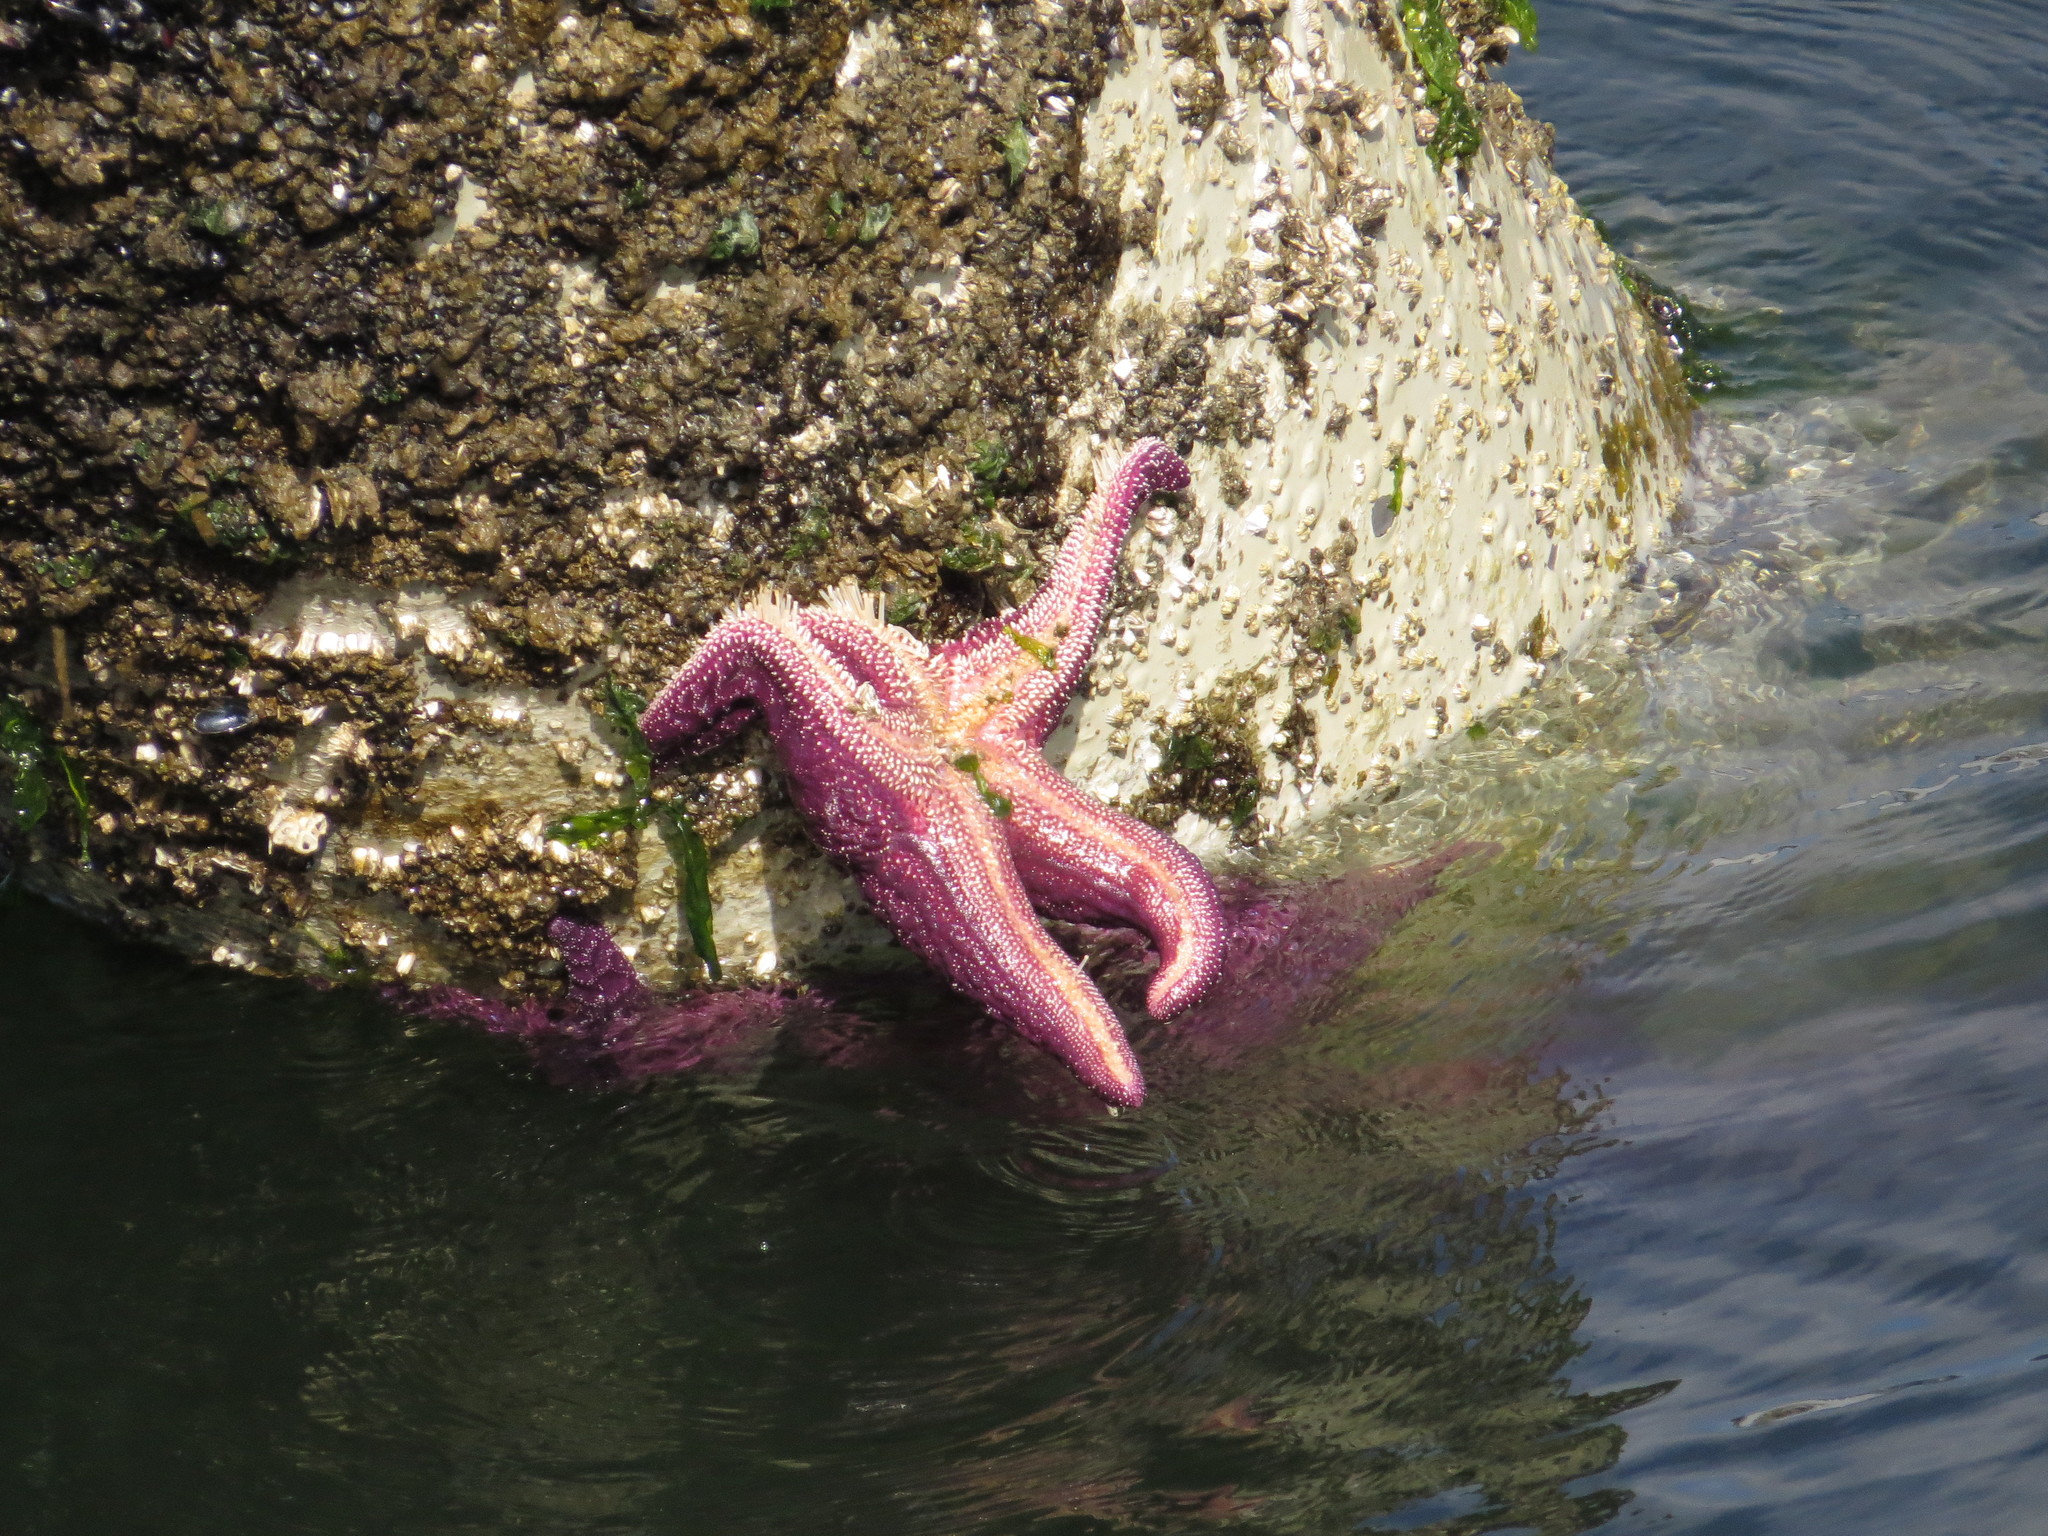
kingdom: Animalia
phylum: Echinodermata
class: Asteroidea
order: Forcipulatida
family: Asteriidae
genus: Pisaster
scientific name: Pisaster ochraceus
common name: Ochre stars
